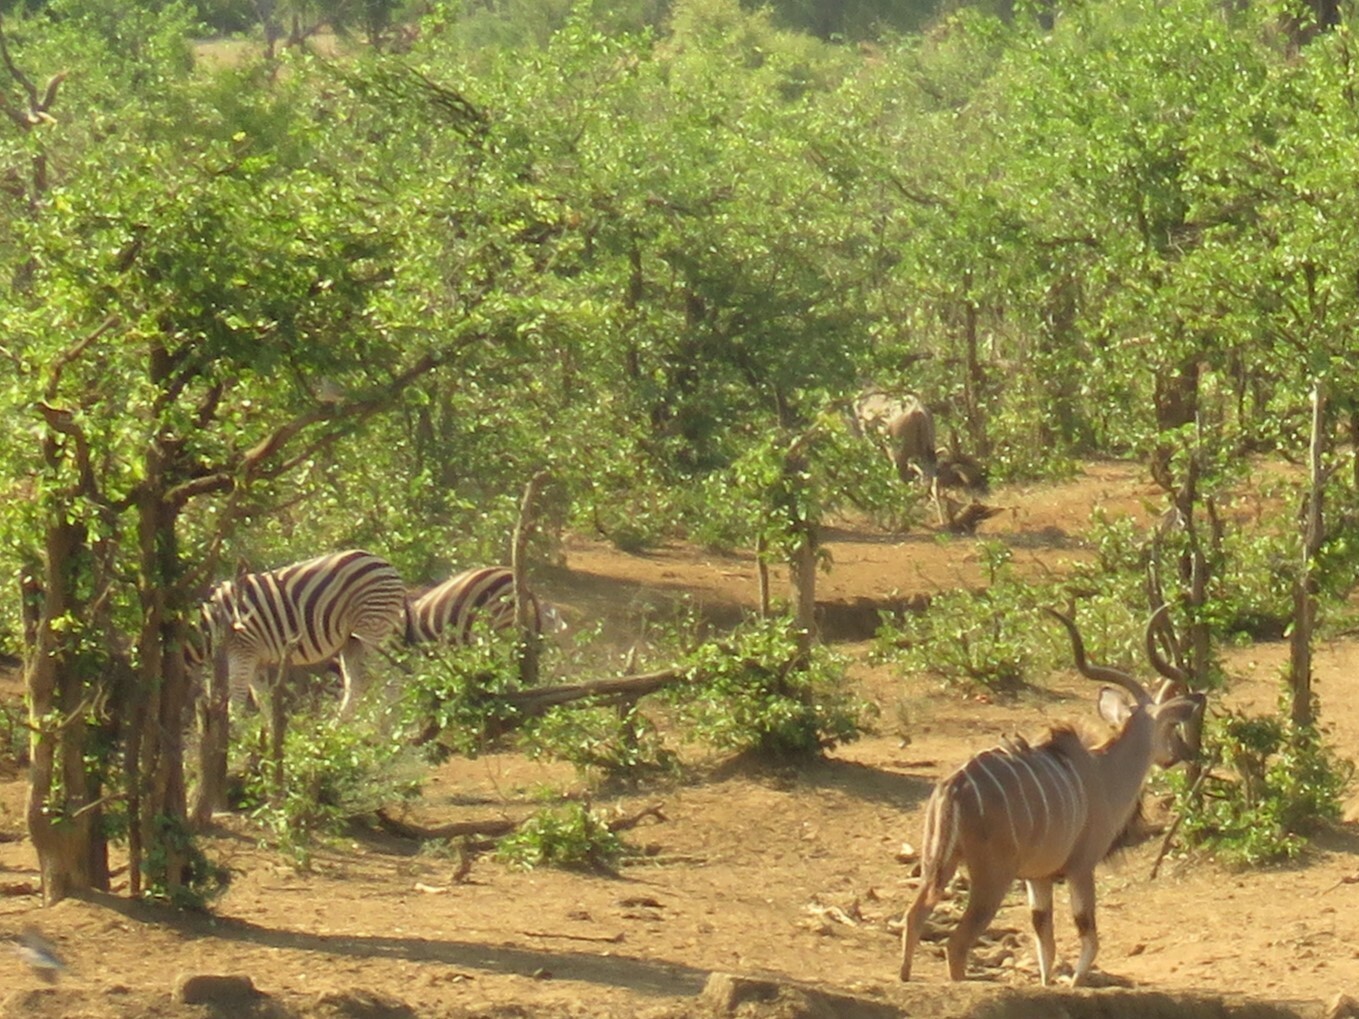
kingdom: Animalia
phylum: Chordata
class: Mammalia
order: Perissodactyla
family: Equidae
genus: Equus
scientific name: Equus quagga
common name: Plains zebra
